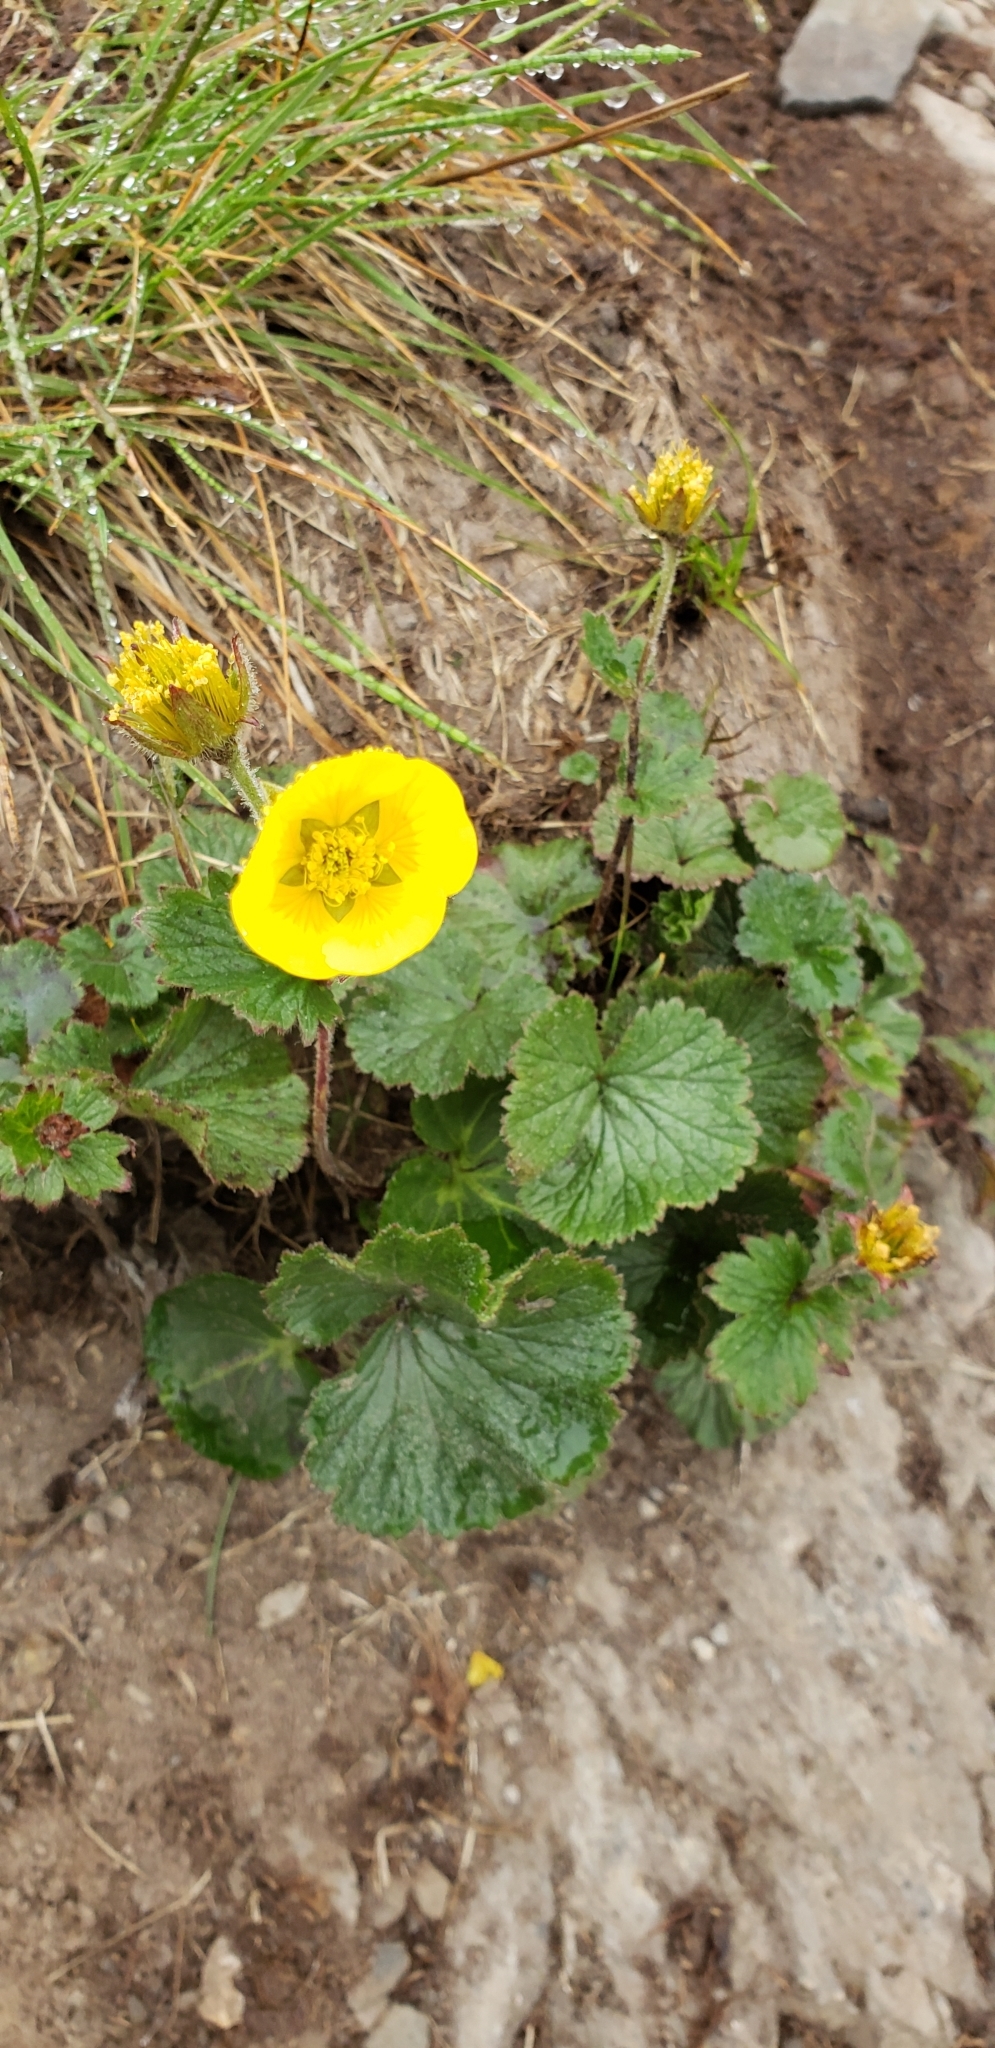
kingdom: Plantae
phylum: Tracheophyta
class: Magnoliopsida
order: Rosales
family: Rosaceae
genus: Geum
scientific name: Geum calthifolium
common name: Caltha-leaved avens
